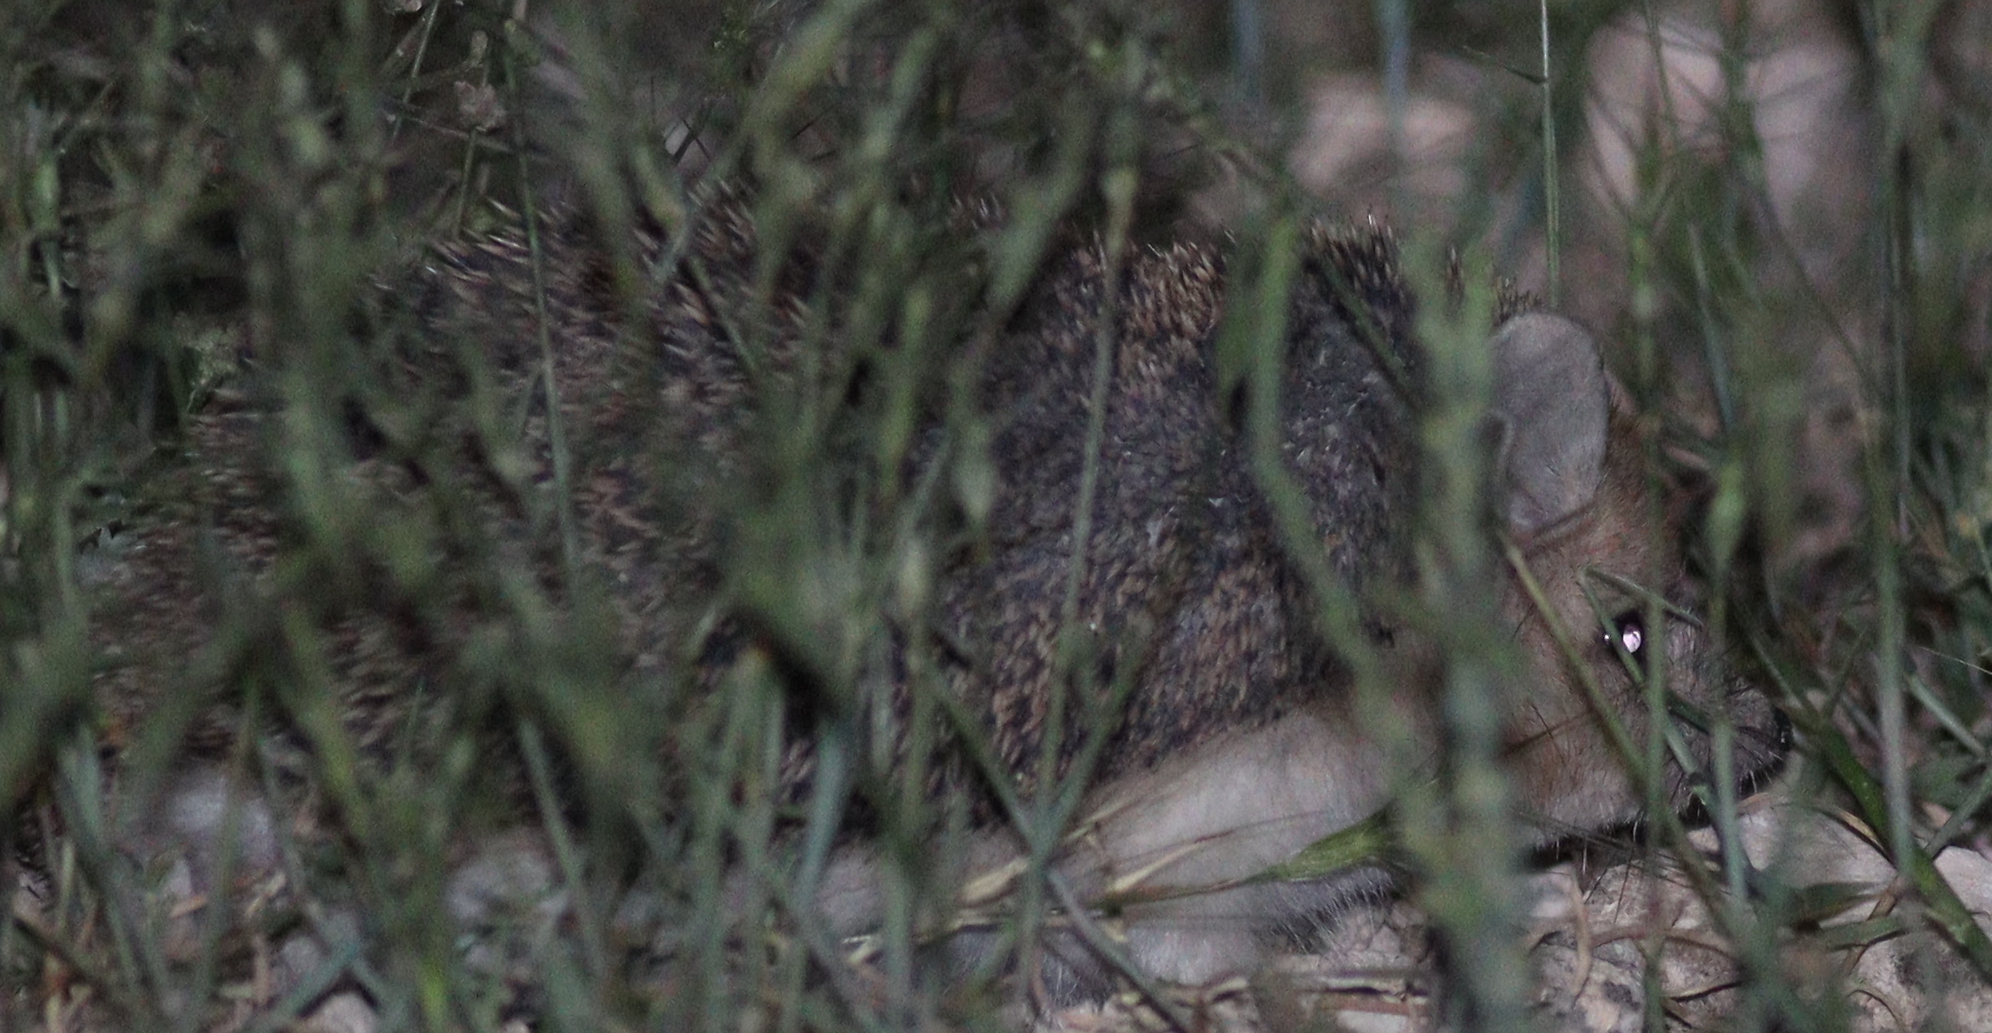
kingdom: Animalia
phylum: Chordata
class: Mammalia
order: Erinaceomorpha
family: Erinaceidae
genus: Hemiechinus
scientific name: Hemiechinus auritus
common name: Long-eared hedgehog
